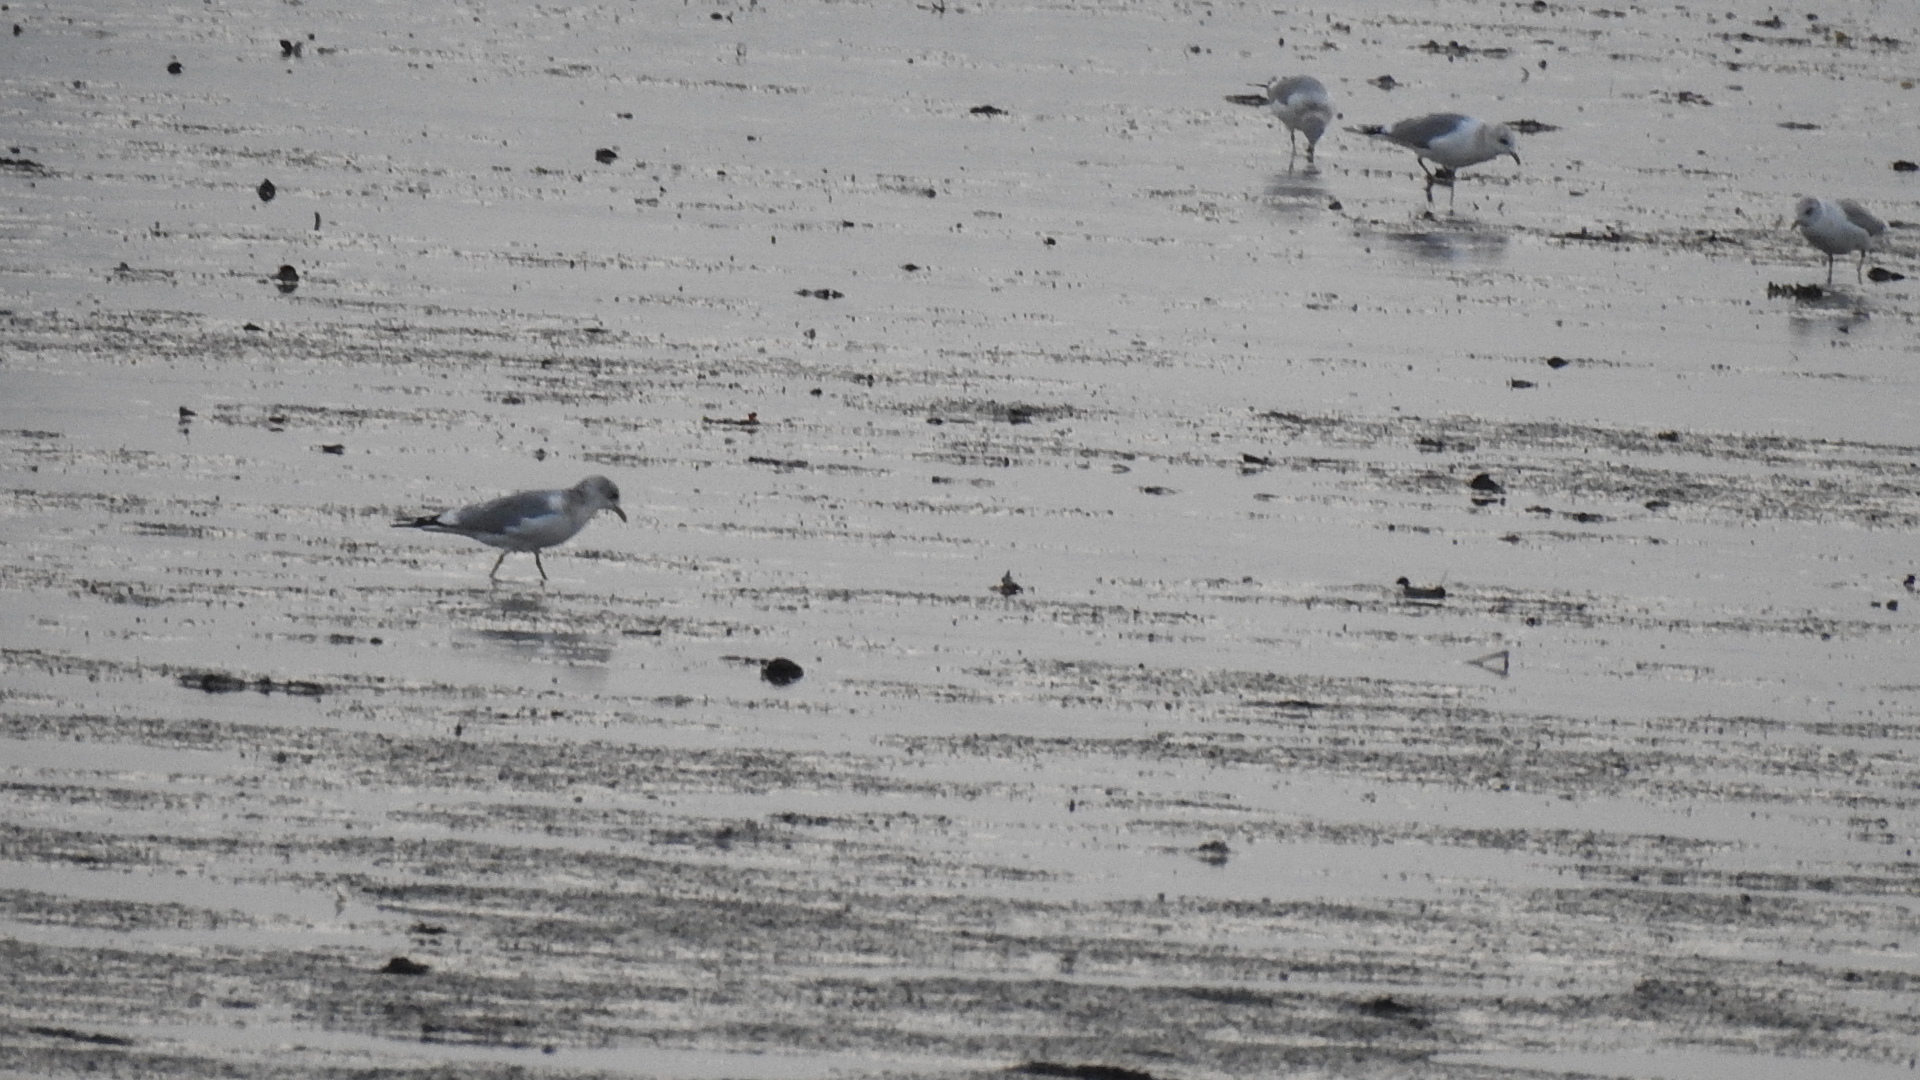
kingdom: Animalia
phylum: Chordata
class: Aves
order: Charadriiformes
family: Laridae
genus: Larus
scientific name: Larus brachyrhynchus
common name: Short-billed gull
